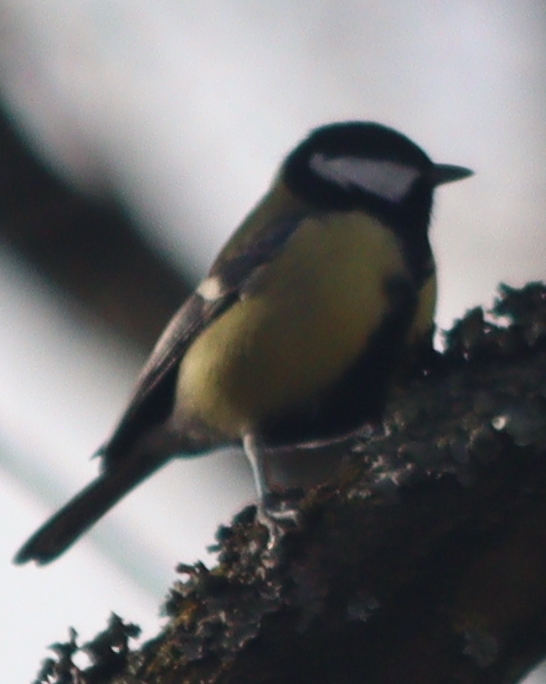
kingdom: Animalia
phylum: Chordata
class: Aves
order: Passeriformes
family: Paridae
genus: Parus
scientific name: Parus major
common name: Great tit
